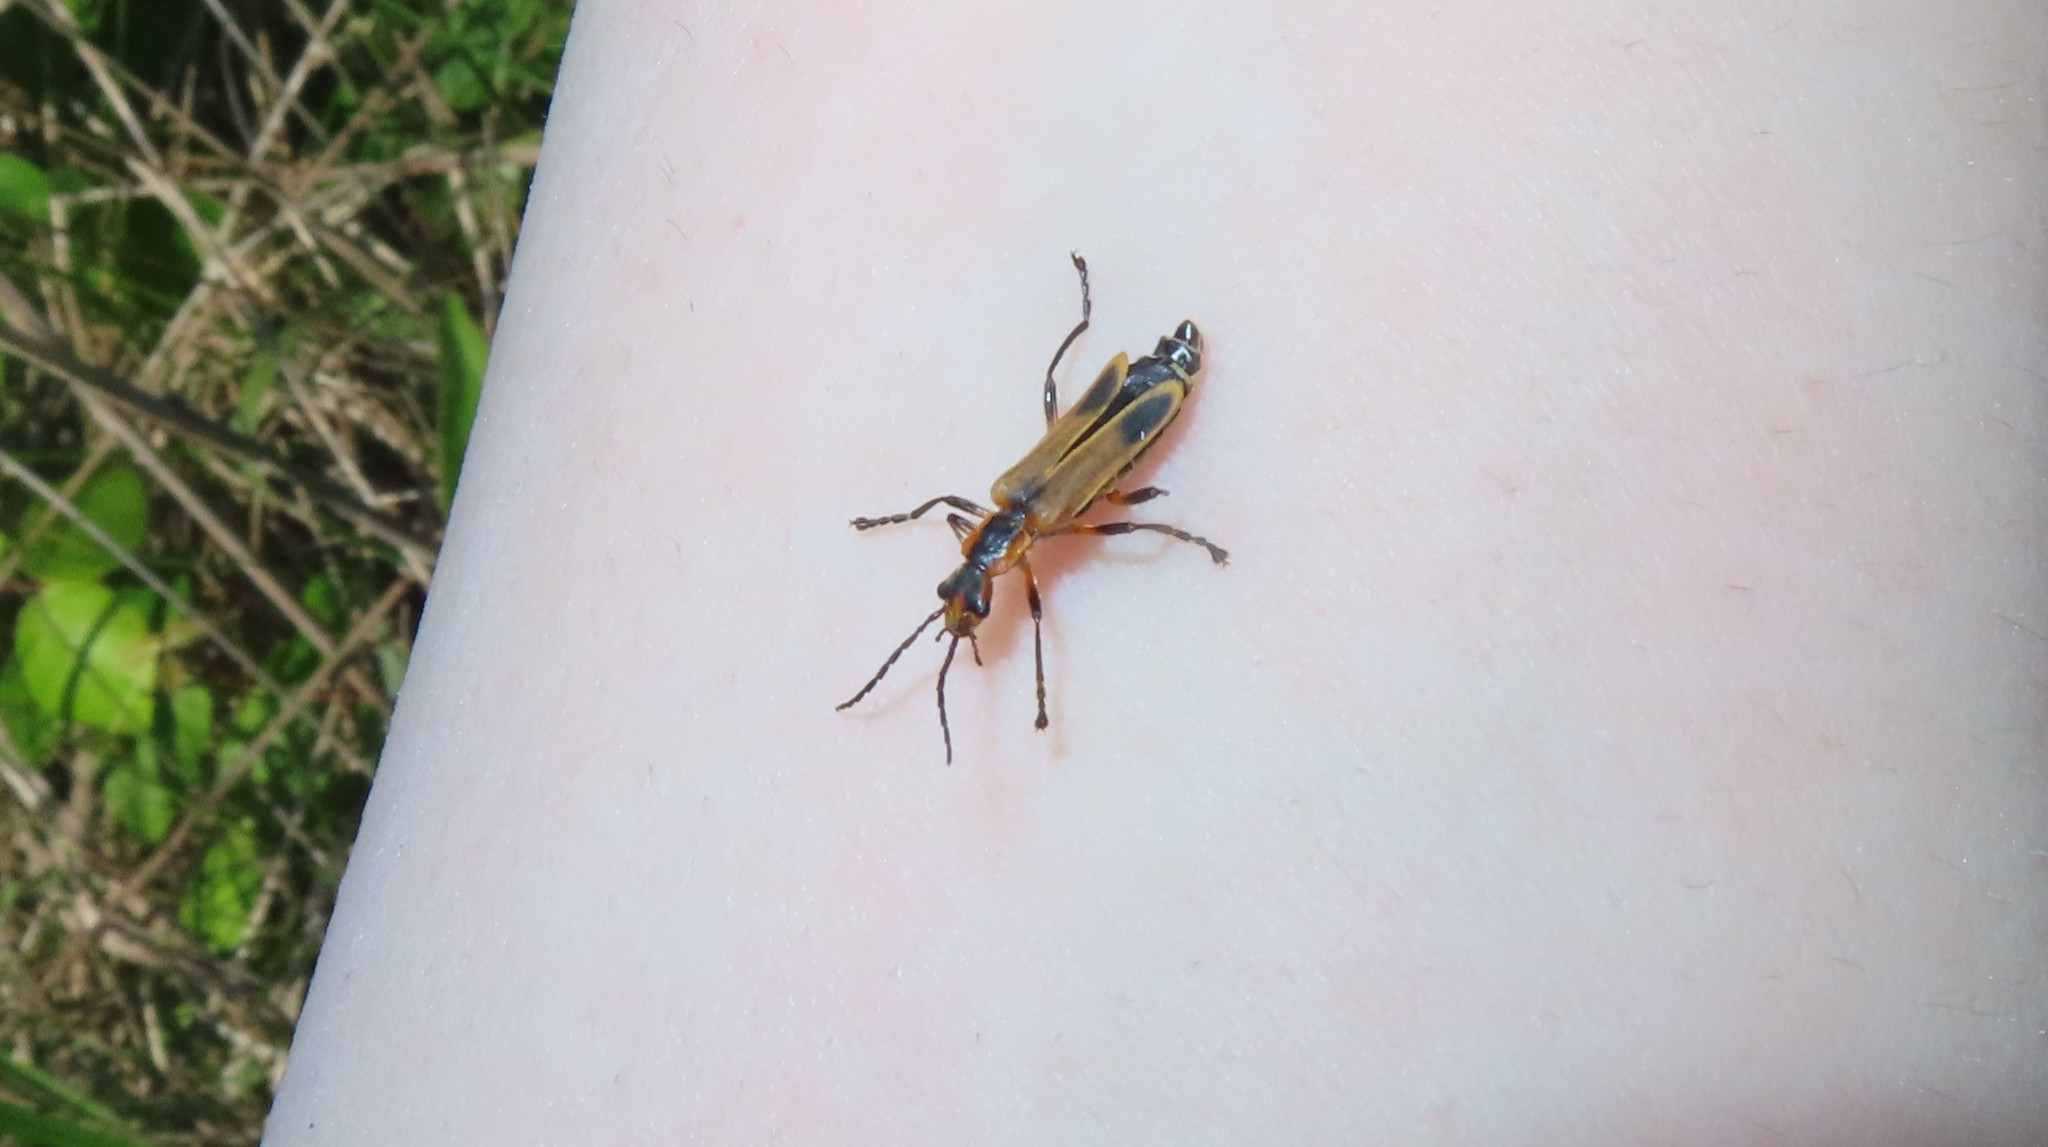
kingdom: Animalia
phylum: Arthropoda
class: Insecta
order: Coleoptera
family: Cantharidae
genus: Chauliognathus
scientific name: Chauliognathus marginatus
